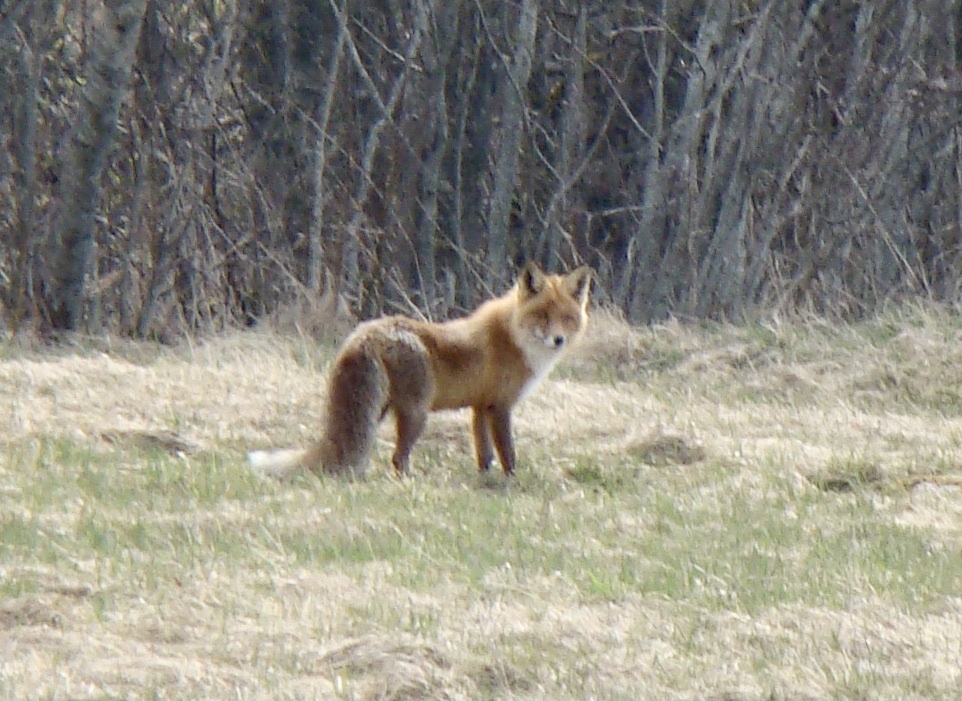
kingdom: Animalia
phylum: Chordata
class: Mammalia
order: Carnivora
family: Canidae
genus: Vulpes
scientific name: Vulpes vulpes
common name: Red fox
